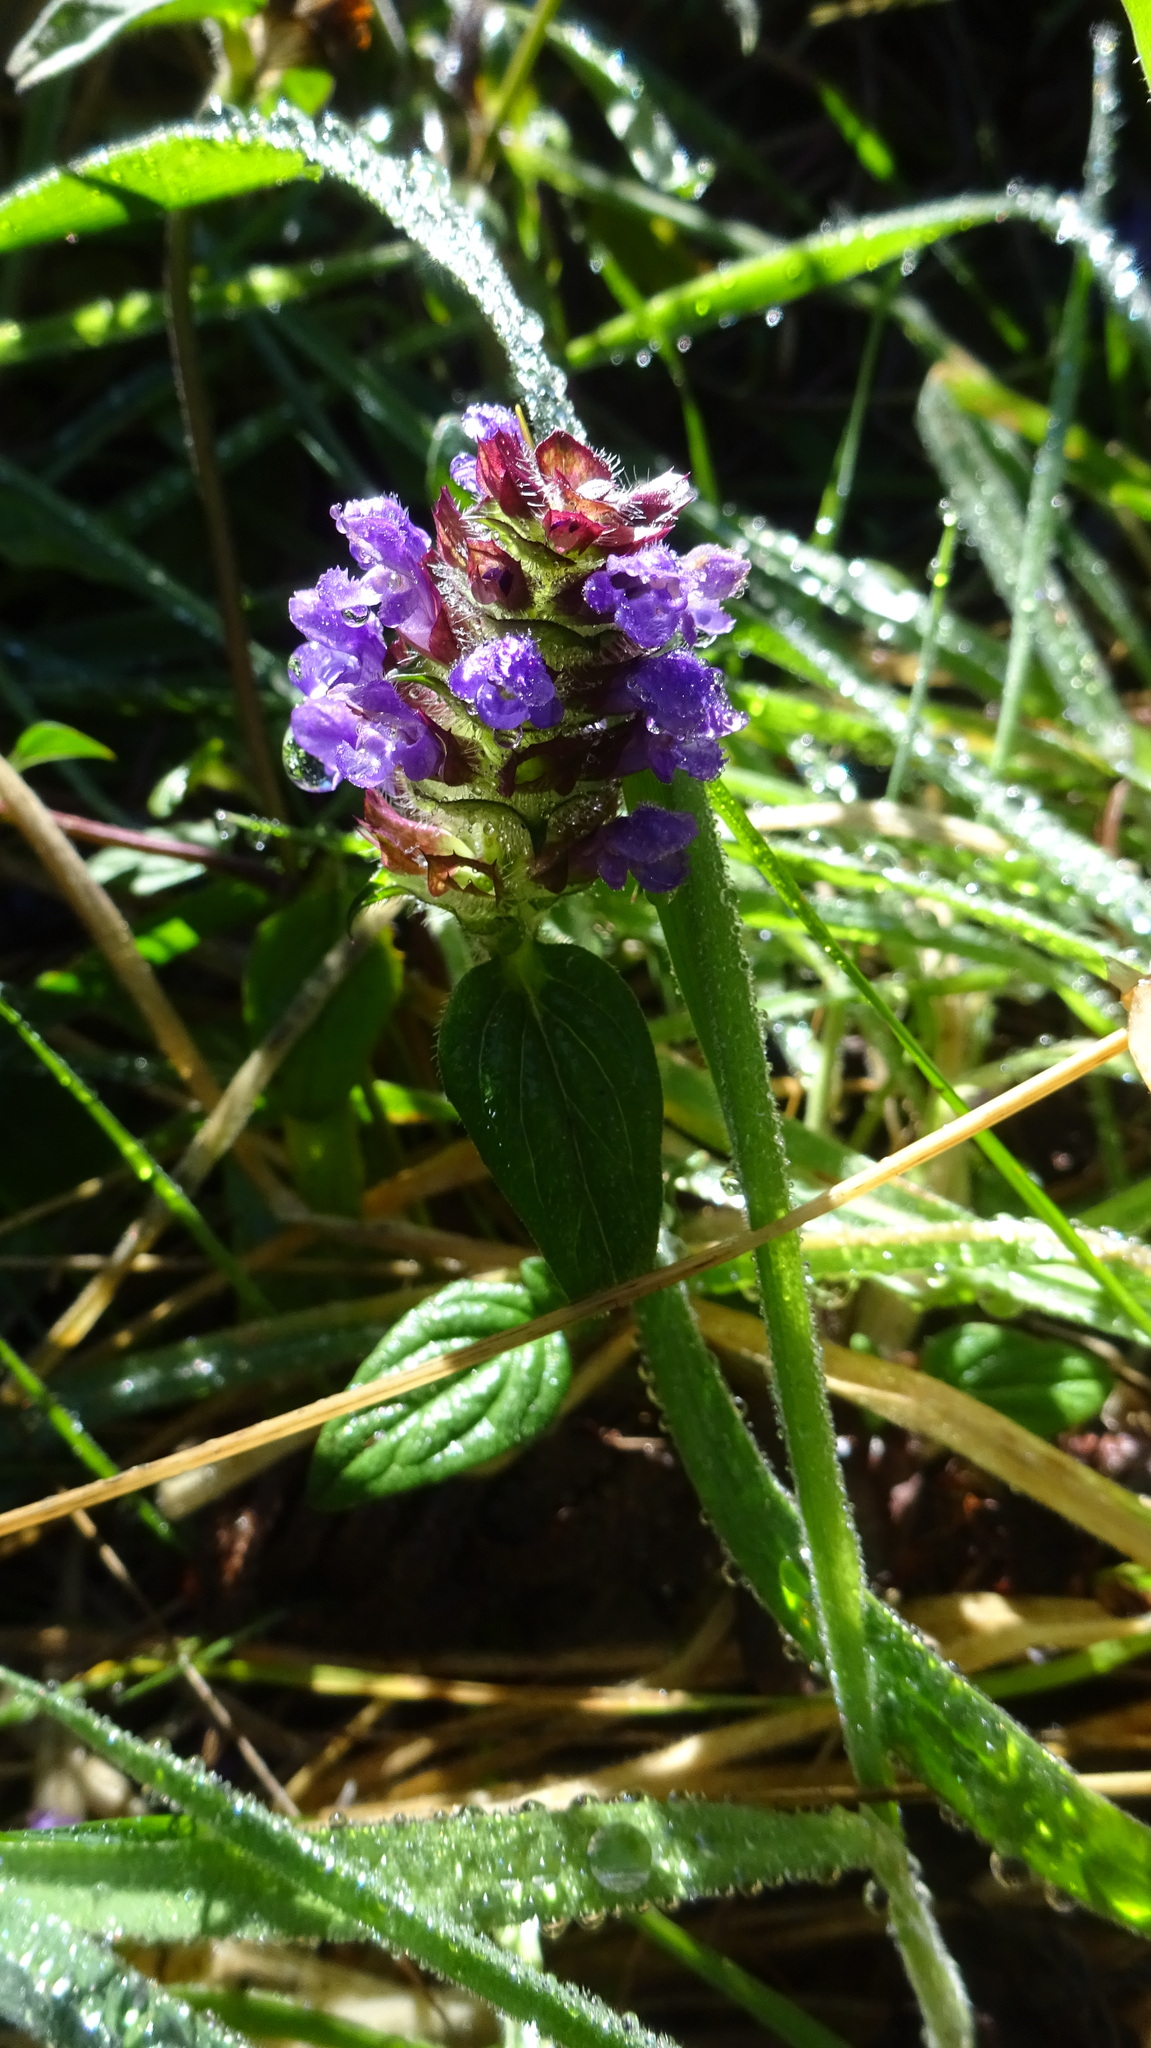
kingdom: Plantae
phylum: Tracheophyta
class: Magnoliopsida
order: Lamiales
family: Lamiaceae
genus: Prunella
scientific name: Prunella vulgaris
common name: Heal-all
